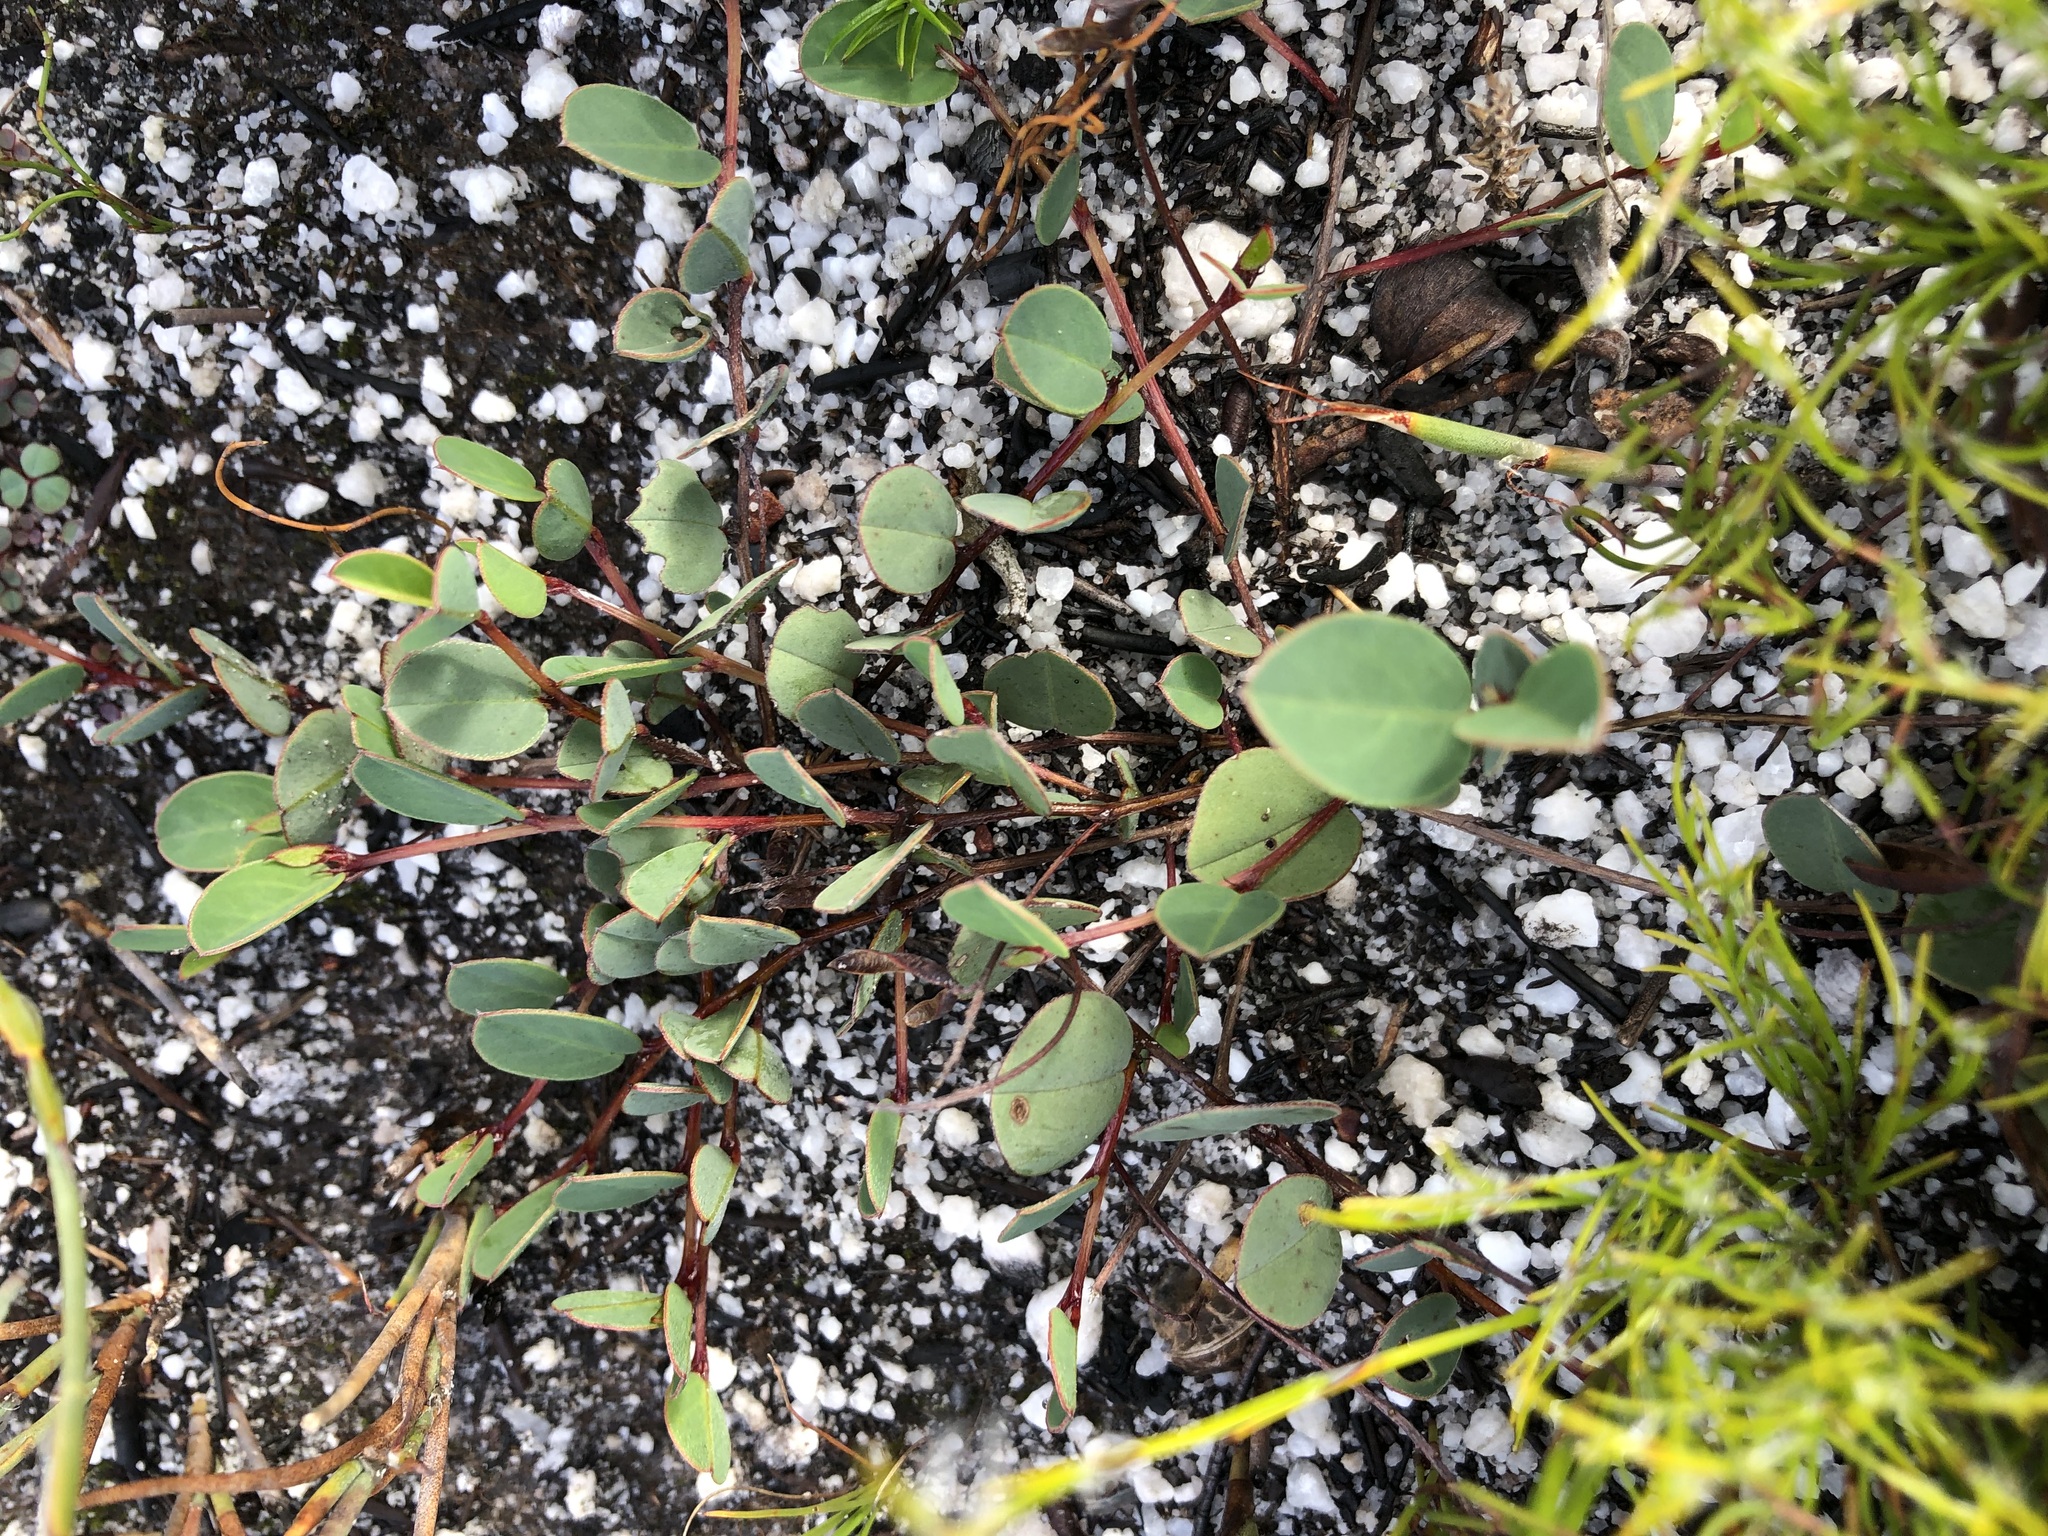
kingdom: Plantae
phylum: Tracheophyta
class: Magnoliopsida
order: Fabales
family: Fabaceae
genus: Indigofera
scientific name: Indigofera ovata
